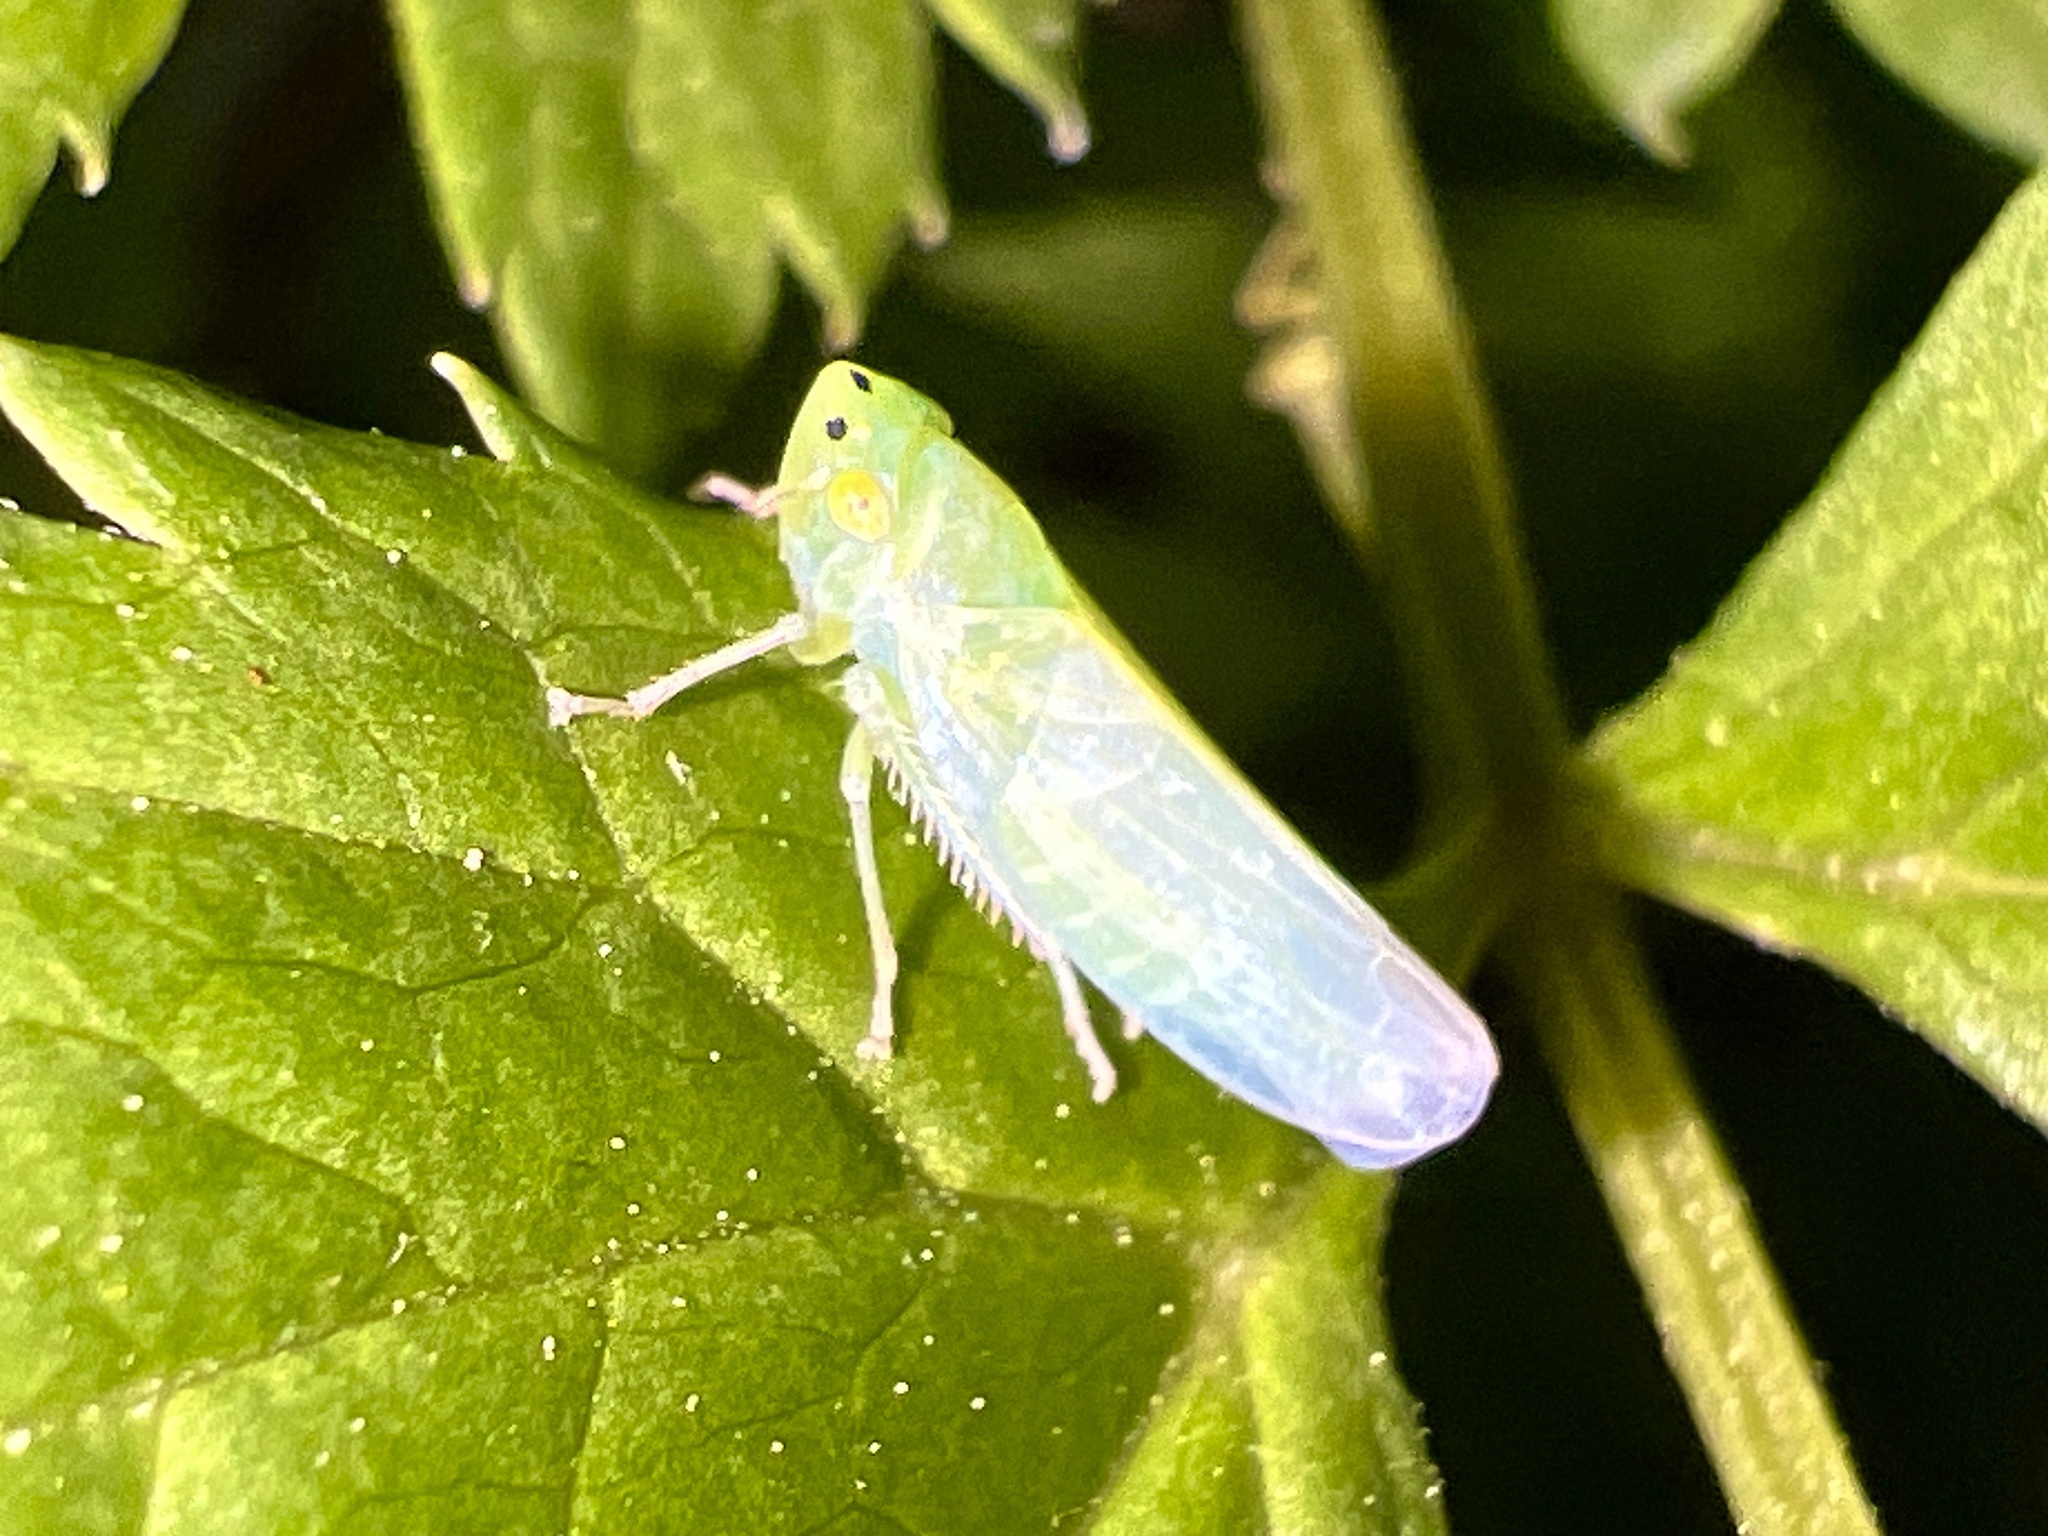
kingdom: Animalia
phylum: Arthropoda
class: Insecta
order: Hemiptera
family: Cicadellidae
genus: Pagaronia
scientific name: Pagaronia minor
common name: Leafhopper
